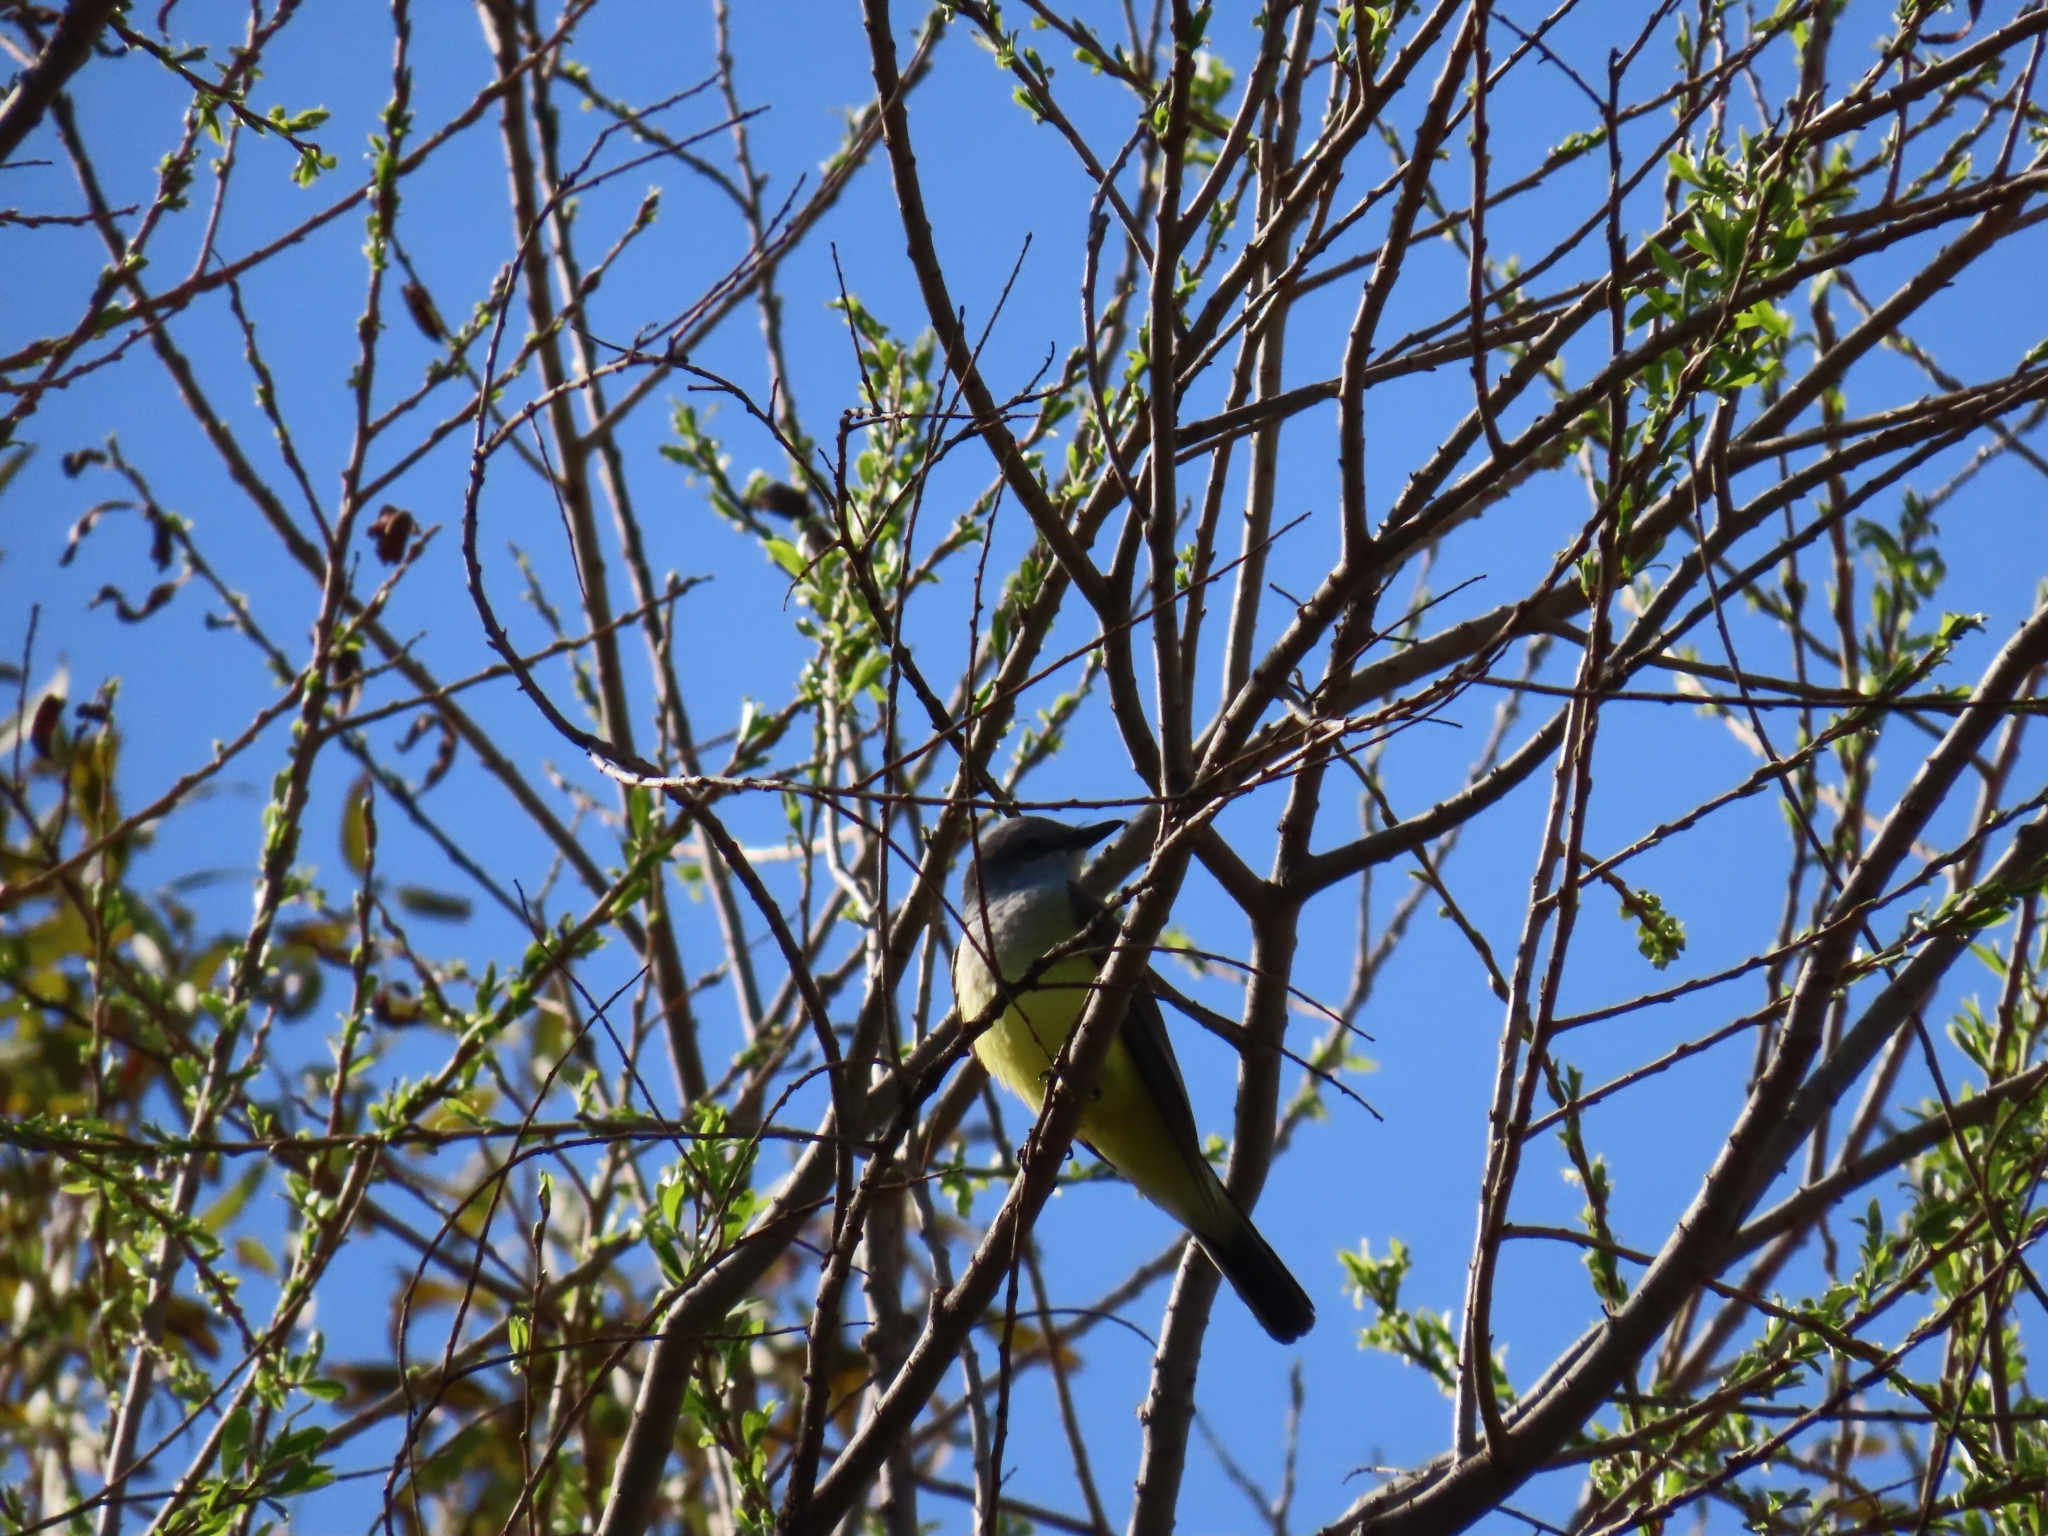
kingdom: Animalia
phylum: Chordata
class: Aves
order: Passeriformes
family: Tyrannidae
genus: Tyrannus
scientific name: Tyrannus vociferans
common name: Cassin's kingbird
